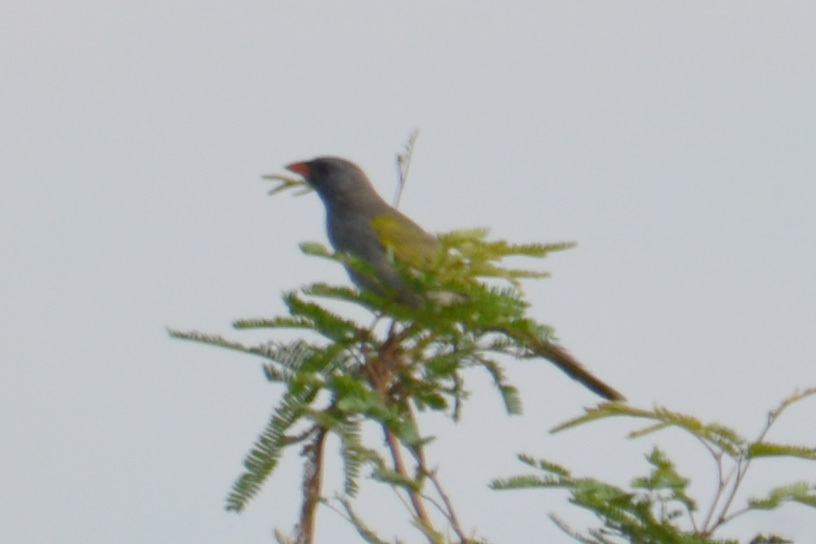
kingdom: Animalia
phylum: Chordata
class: Aves
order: Passeriformes
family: Thraupidae
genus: Embernagra
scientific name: Embernagra platensis
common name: Pampa finch
